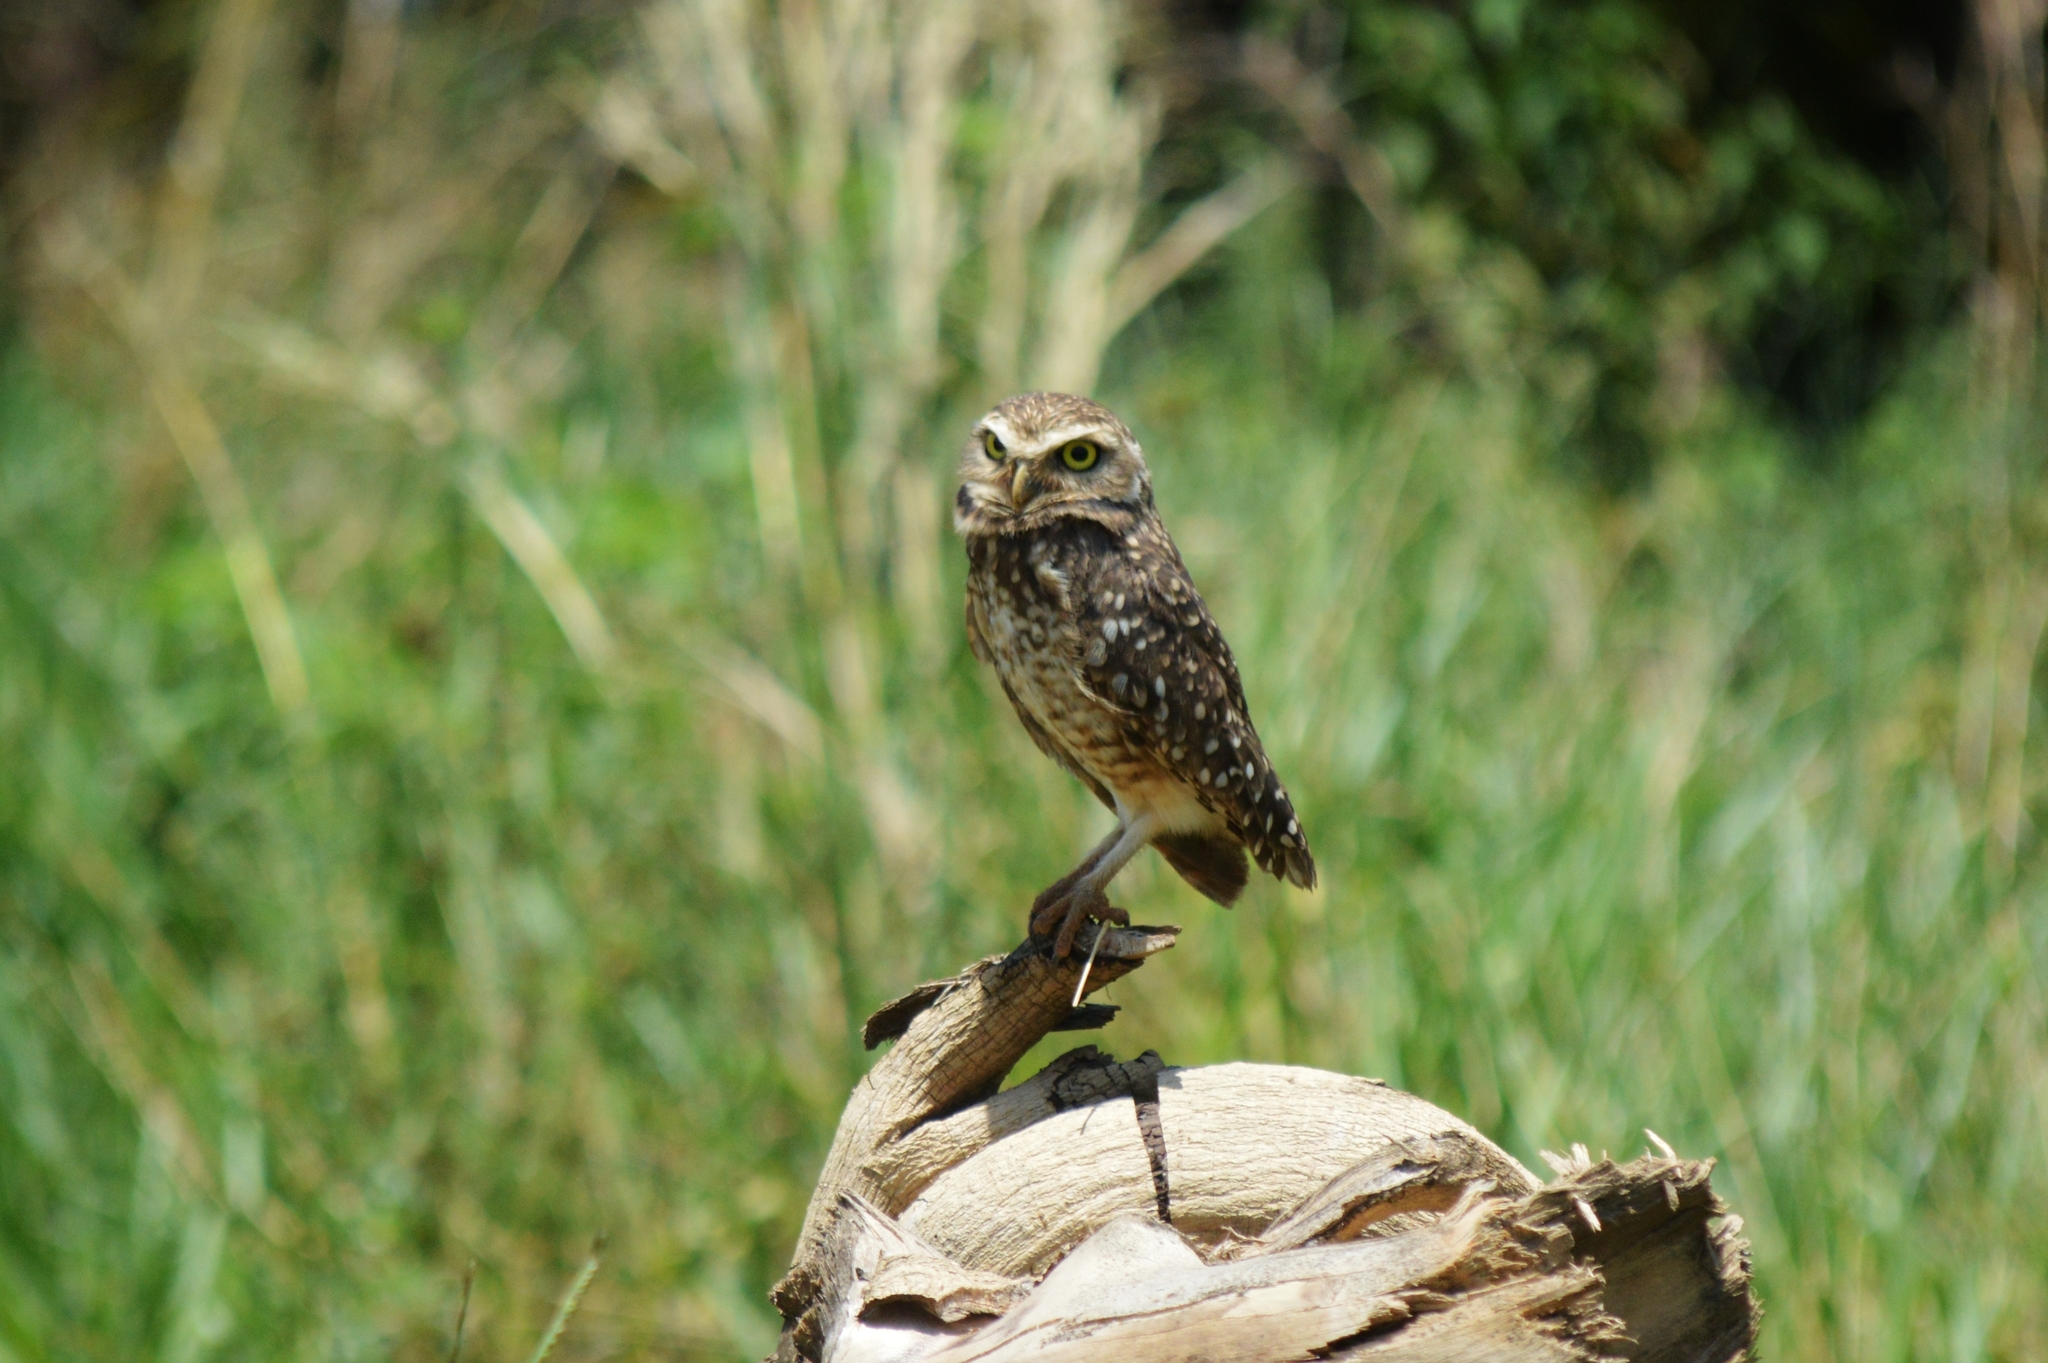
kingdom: Animalia
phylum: Chordata
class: Aves
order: Strigiformes
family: Strigidae
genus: Athene
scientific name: Athene cunicularia
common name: Burrowing owl
